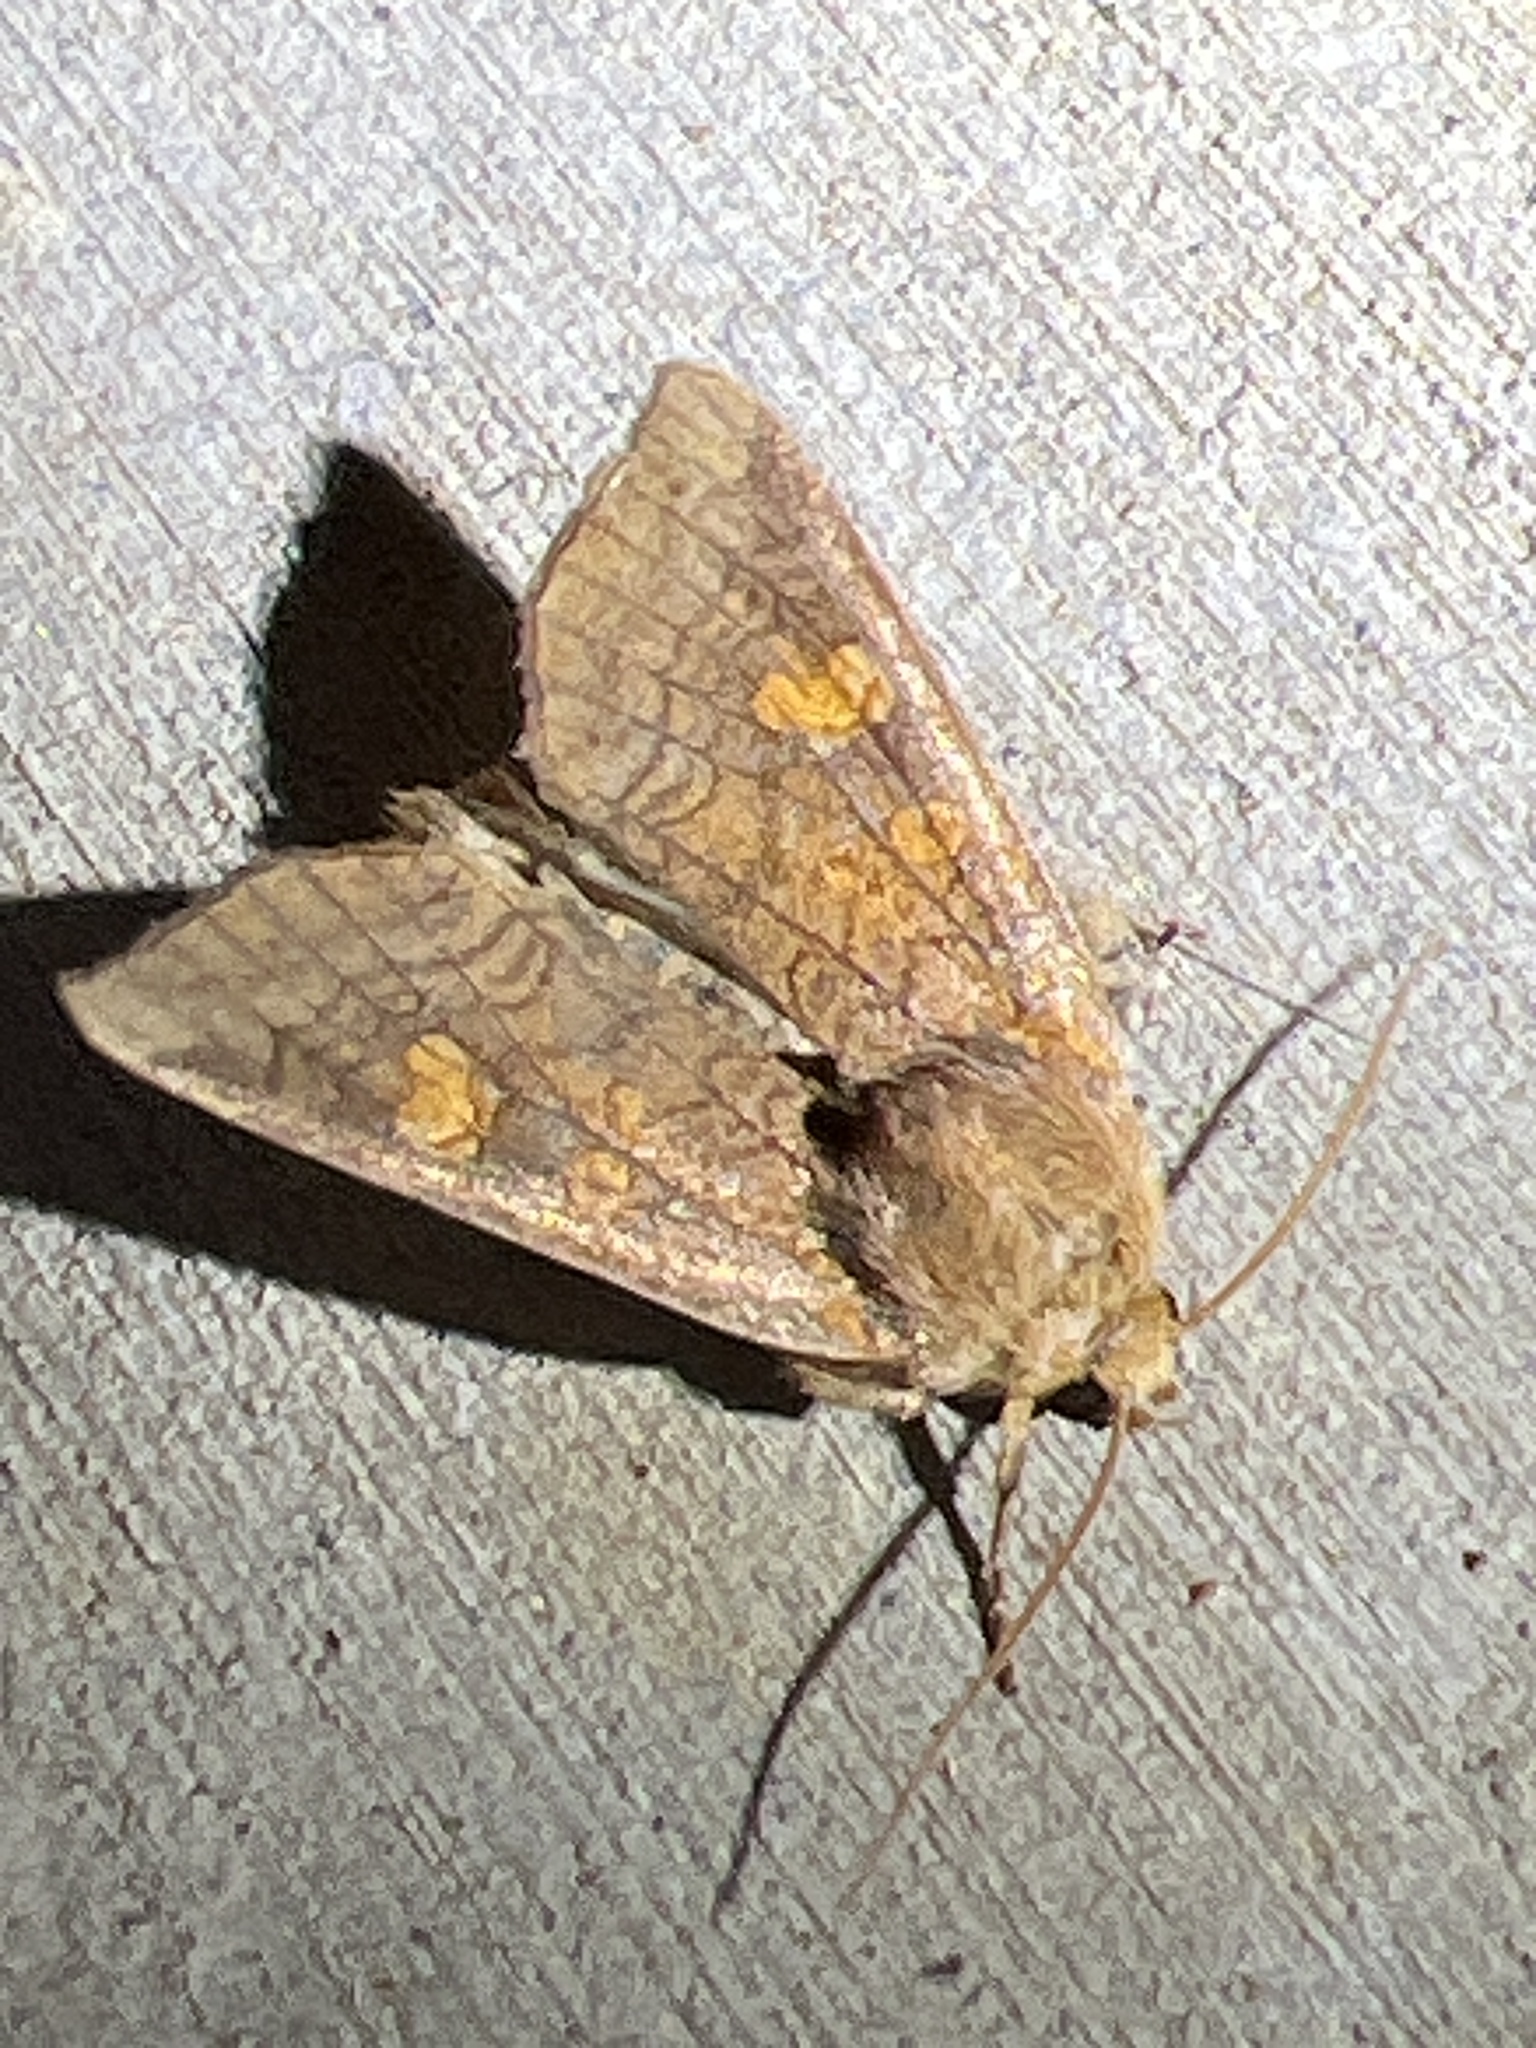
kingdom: Animalia
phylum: Arthropoda
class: Insecta
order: Lepidoptera
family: Noctuidae
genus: Amphipoea
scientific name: Amphipoea americana
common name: American ear moth
